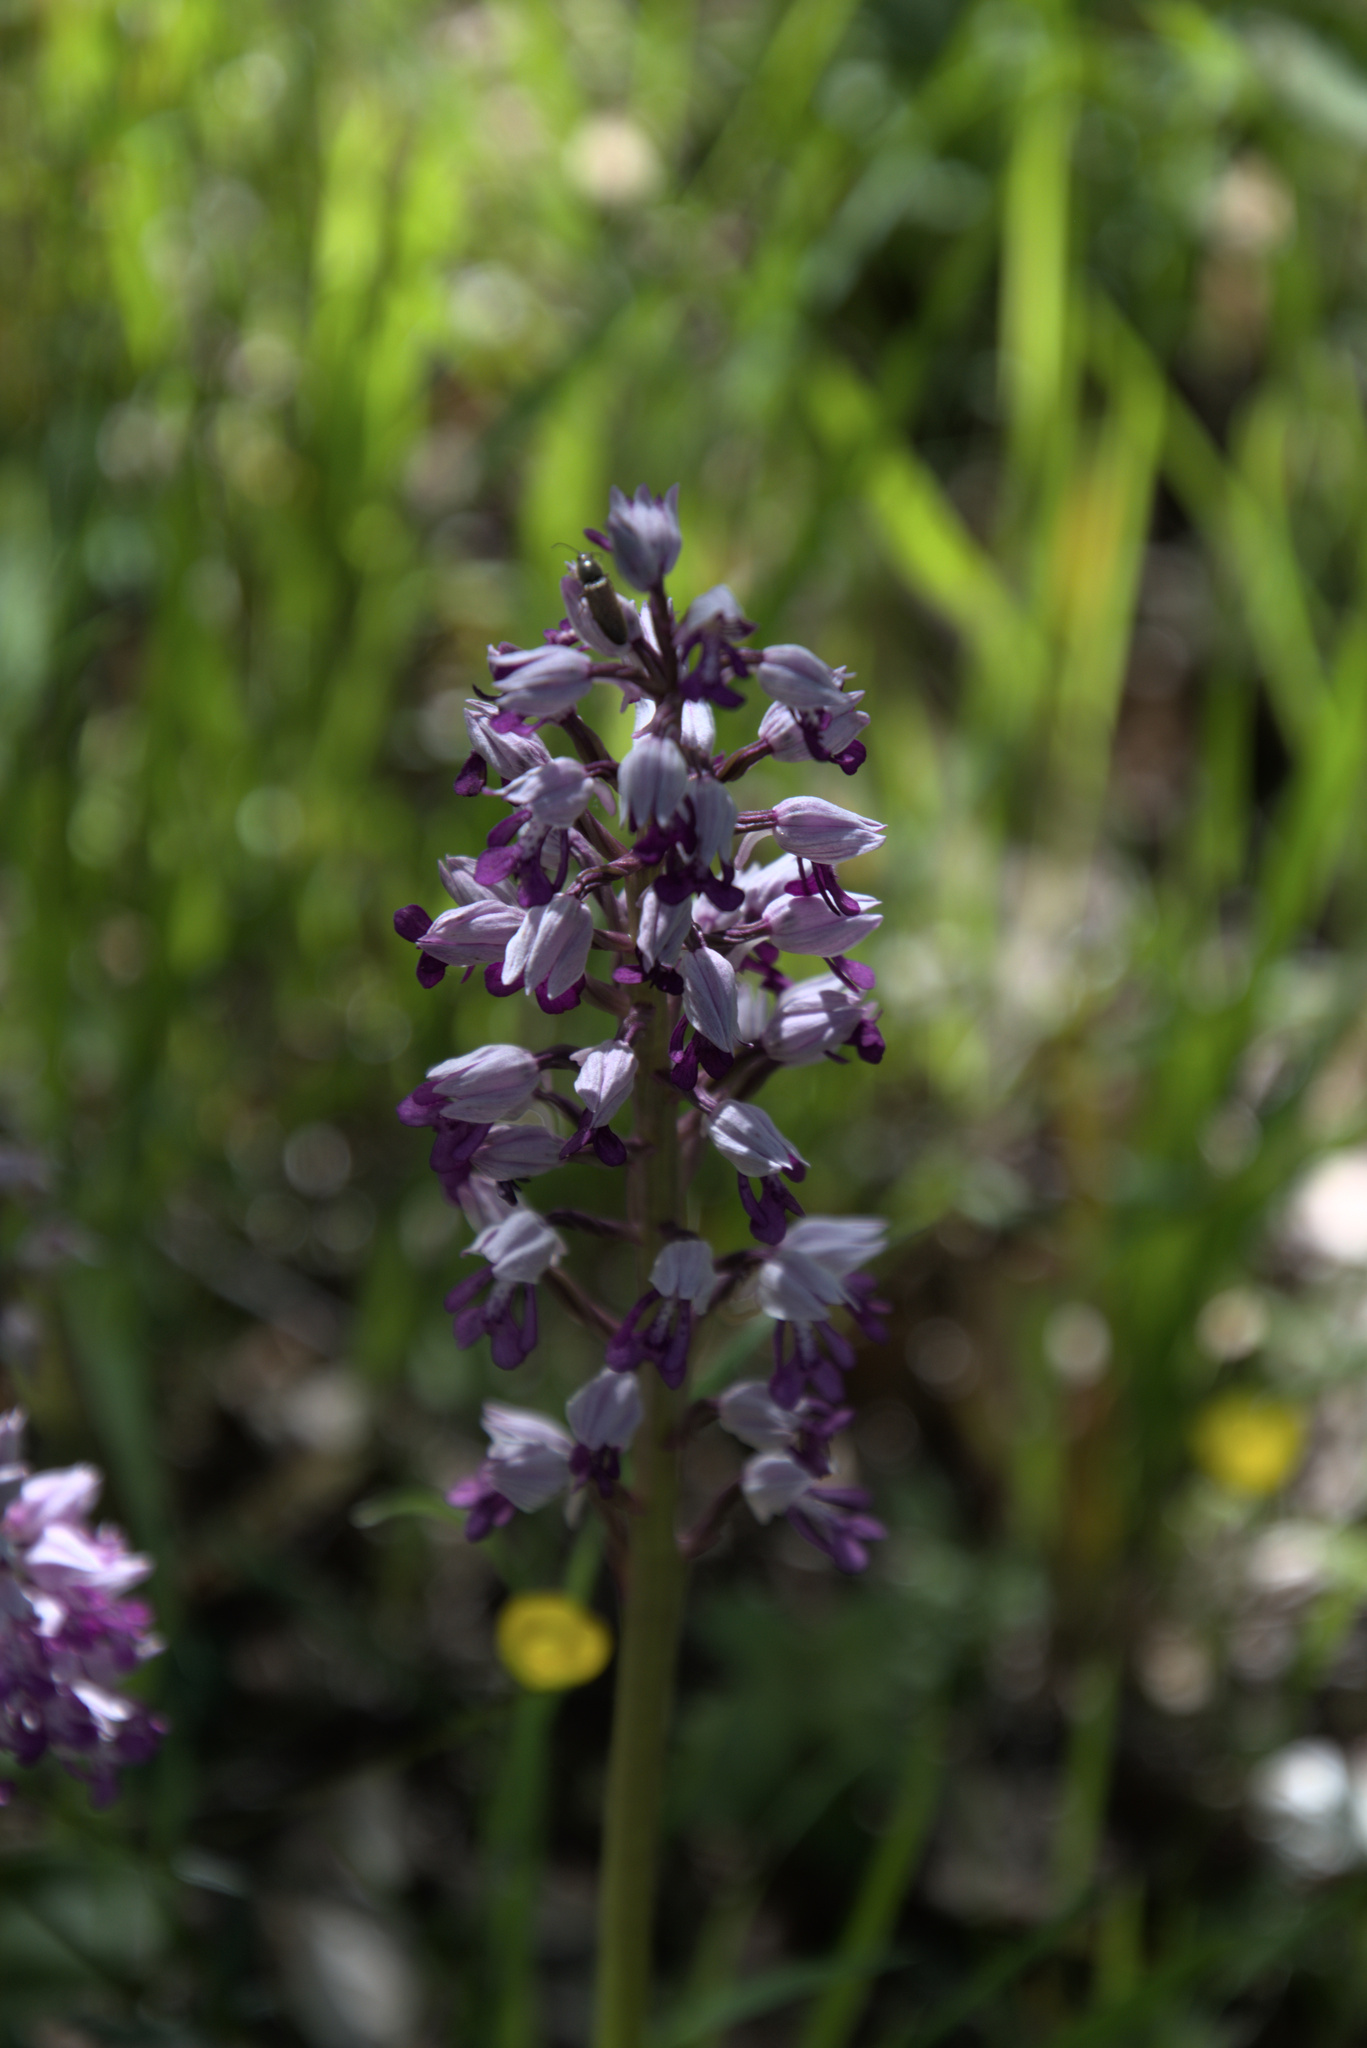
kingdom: Plantae
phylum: Tracheophyta
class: Liliopsida
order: Asparagales
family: Orchidaceae
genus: Orchis
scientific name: Orchis militaris
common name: Military orchid
